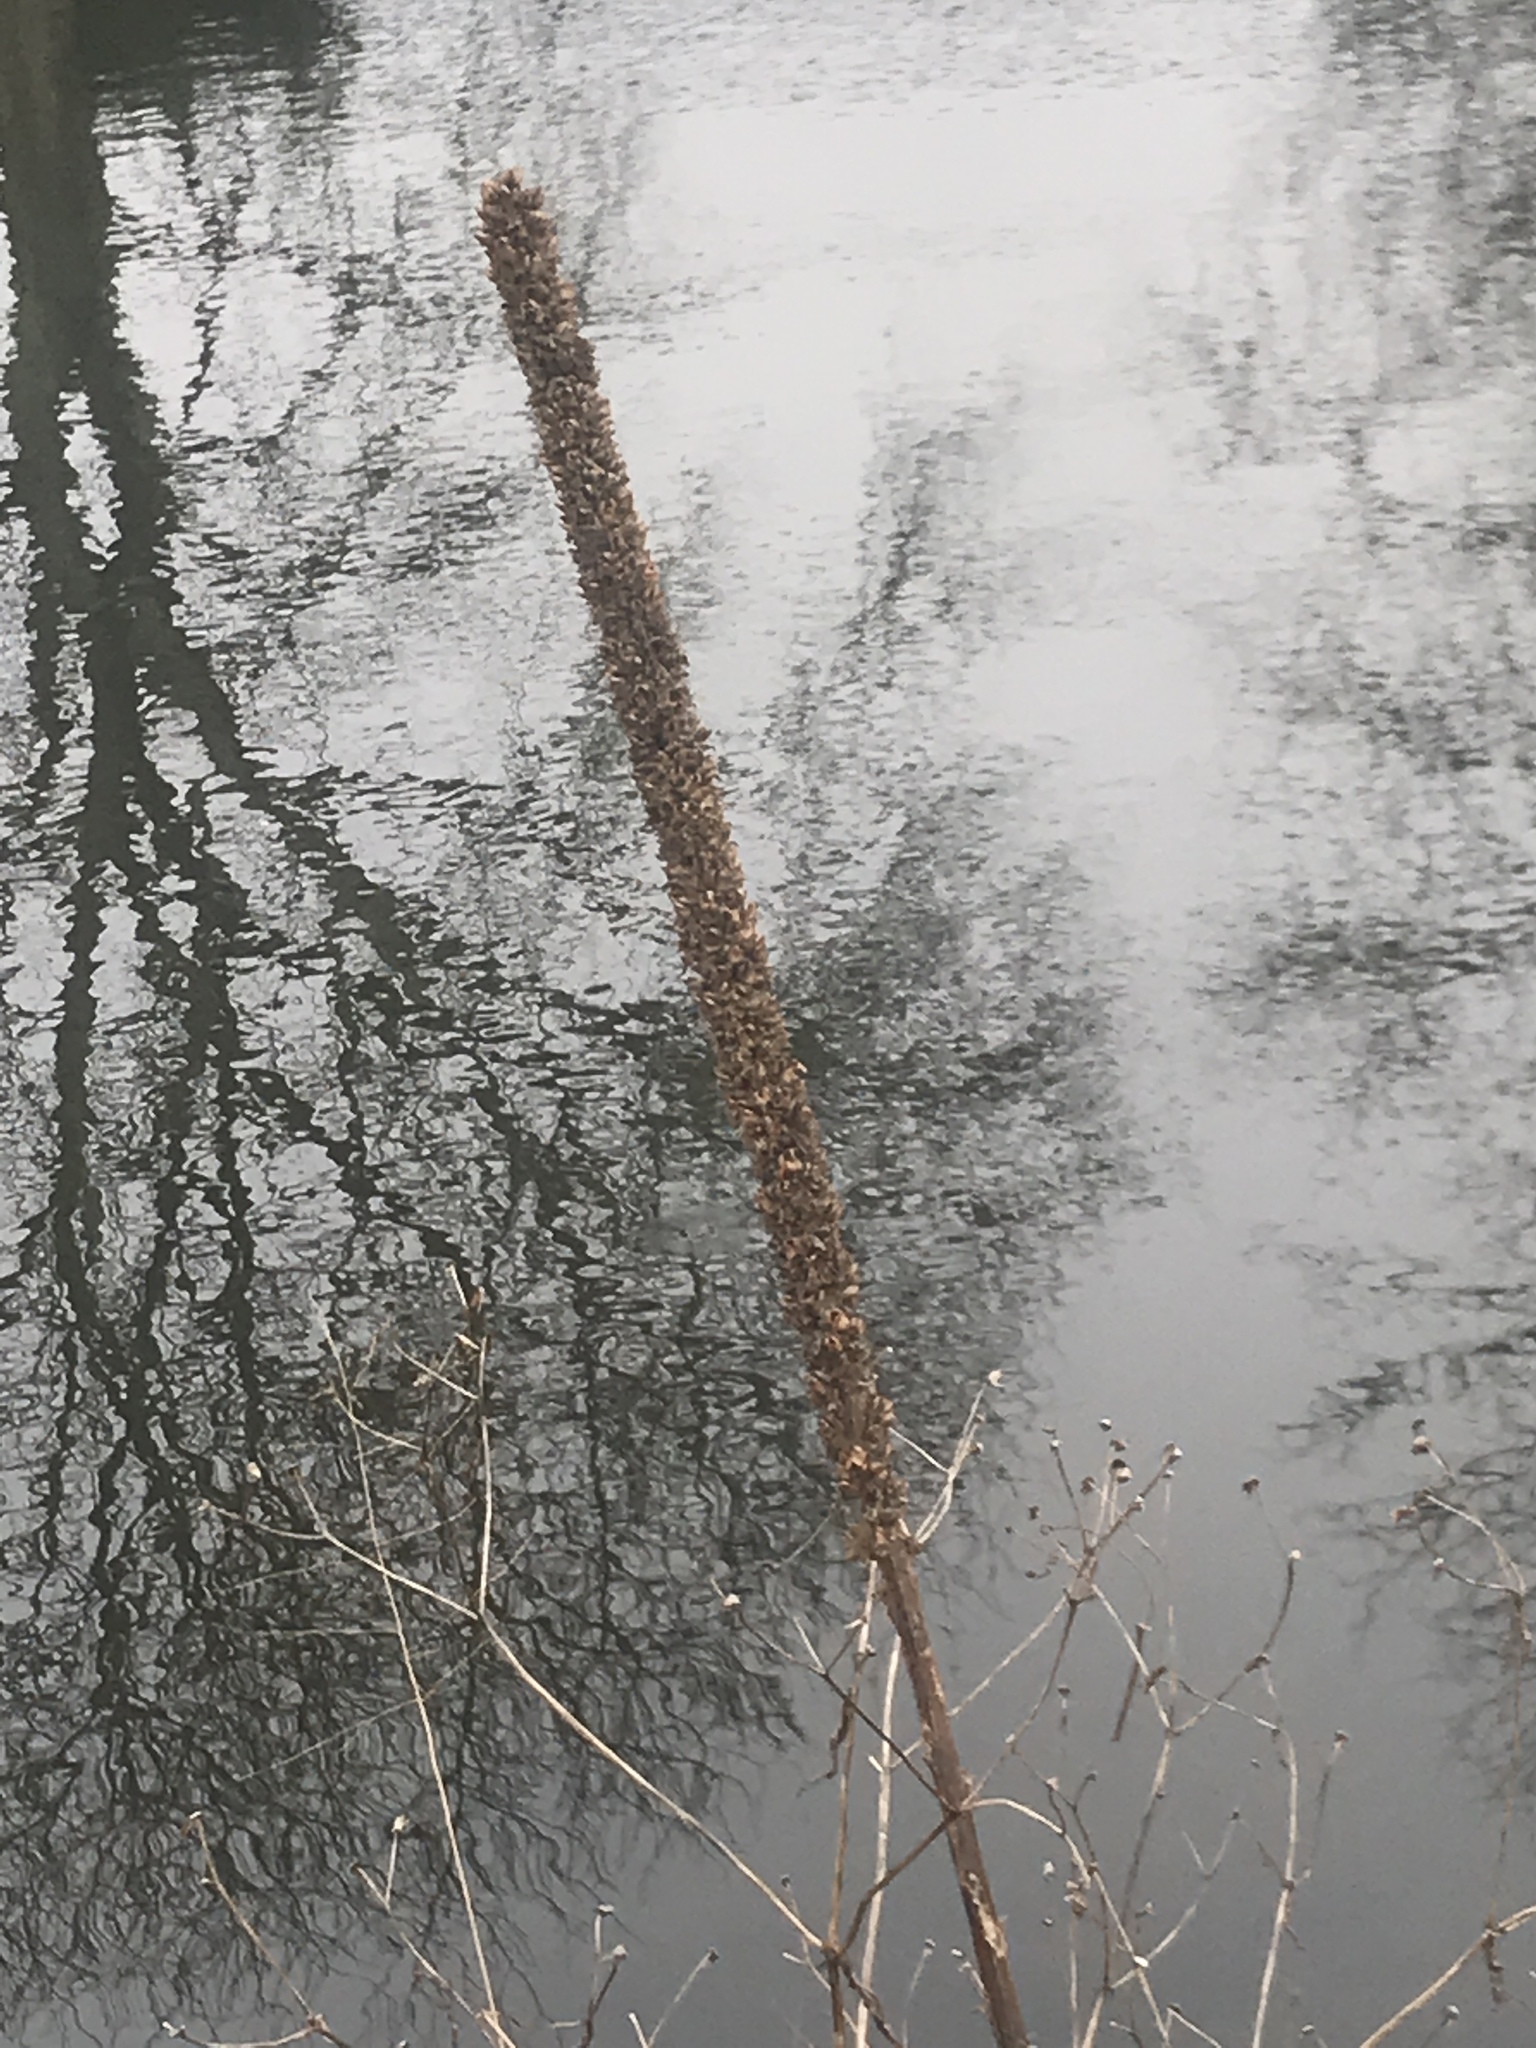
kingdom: Plantae
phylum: Tracheophyta
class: Magnoliopsida
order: Lamiales
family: Scrophulariaceae
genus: Verbascum
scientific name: Verbascum thapsus
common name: Common mullein
